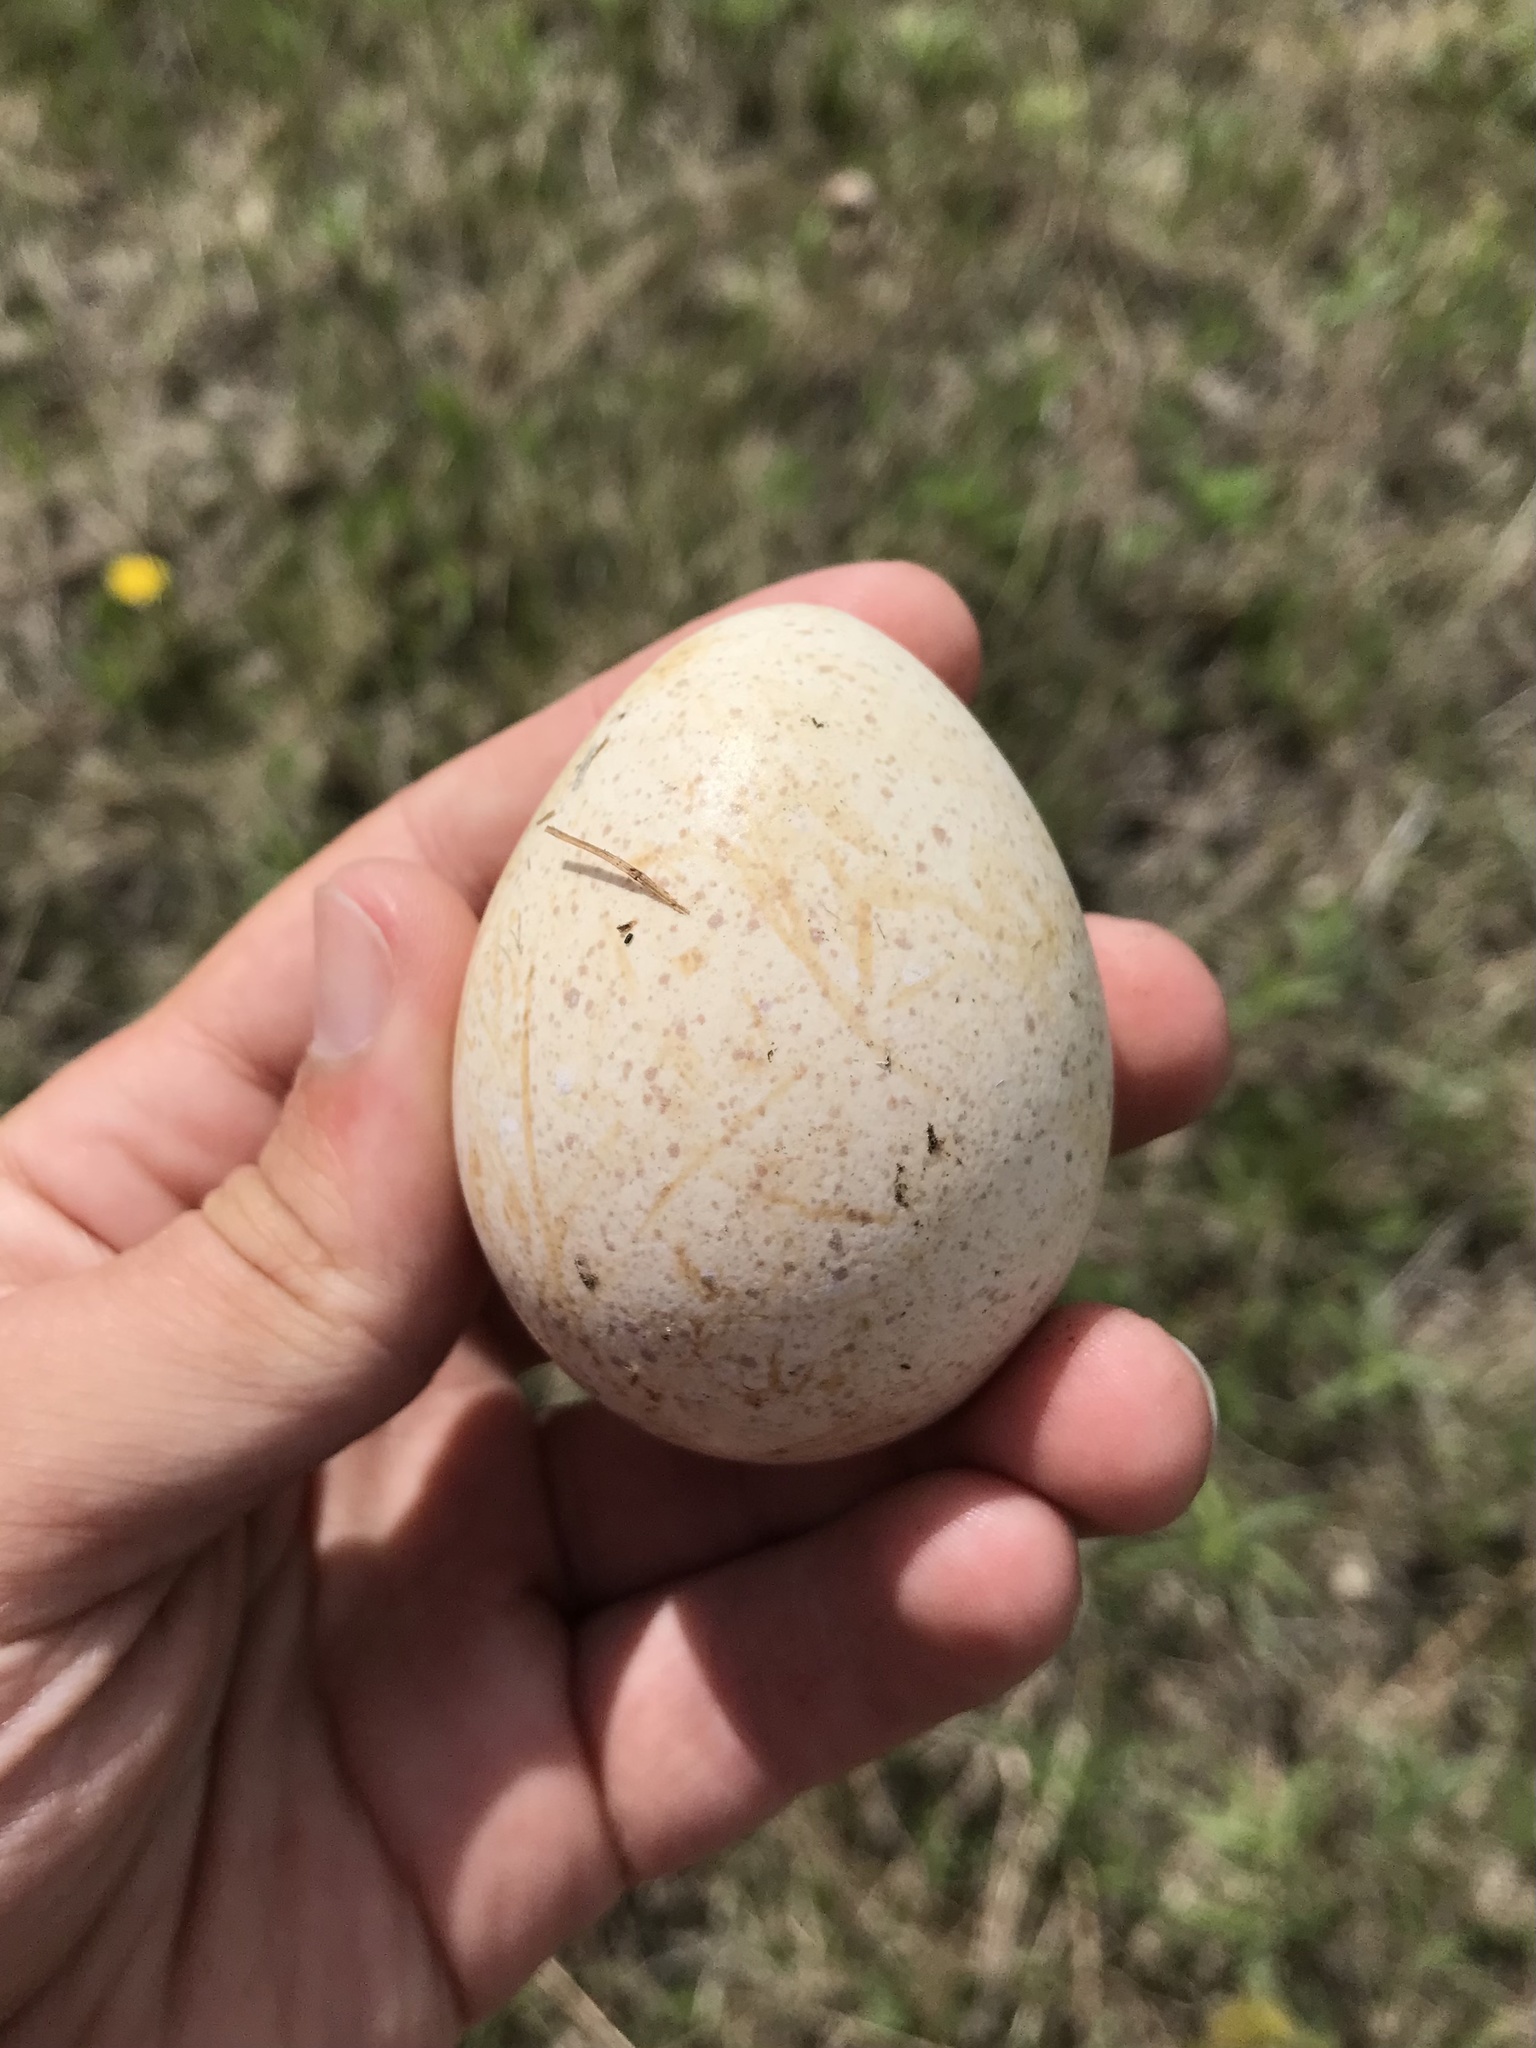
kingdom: Animalia
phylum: Chordata
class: Aves
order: Galliformes
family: Phasianidae
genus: Meleagris
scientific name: Meleagris gallopavo
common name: Wild turkey
